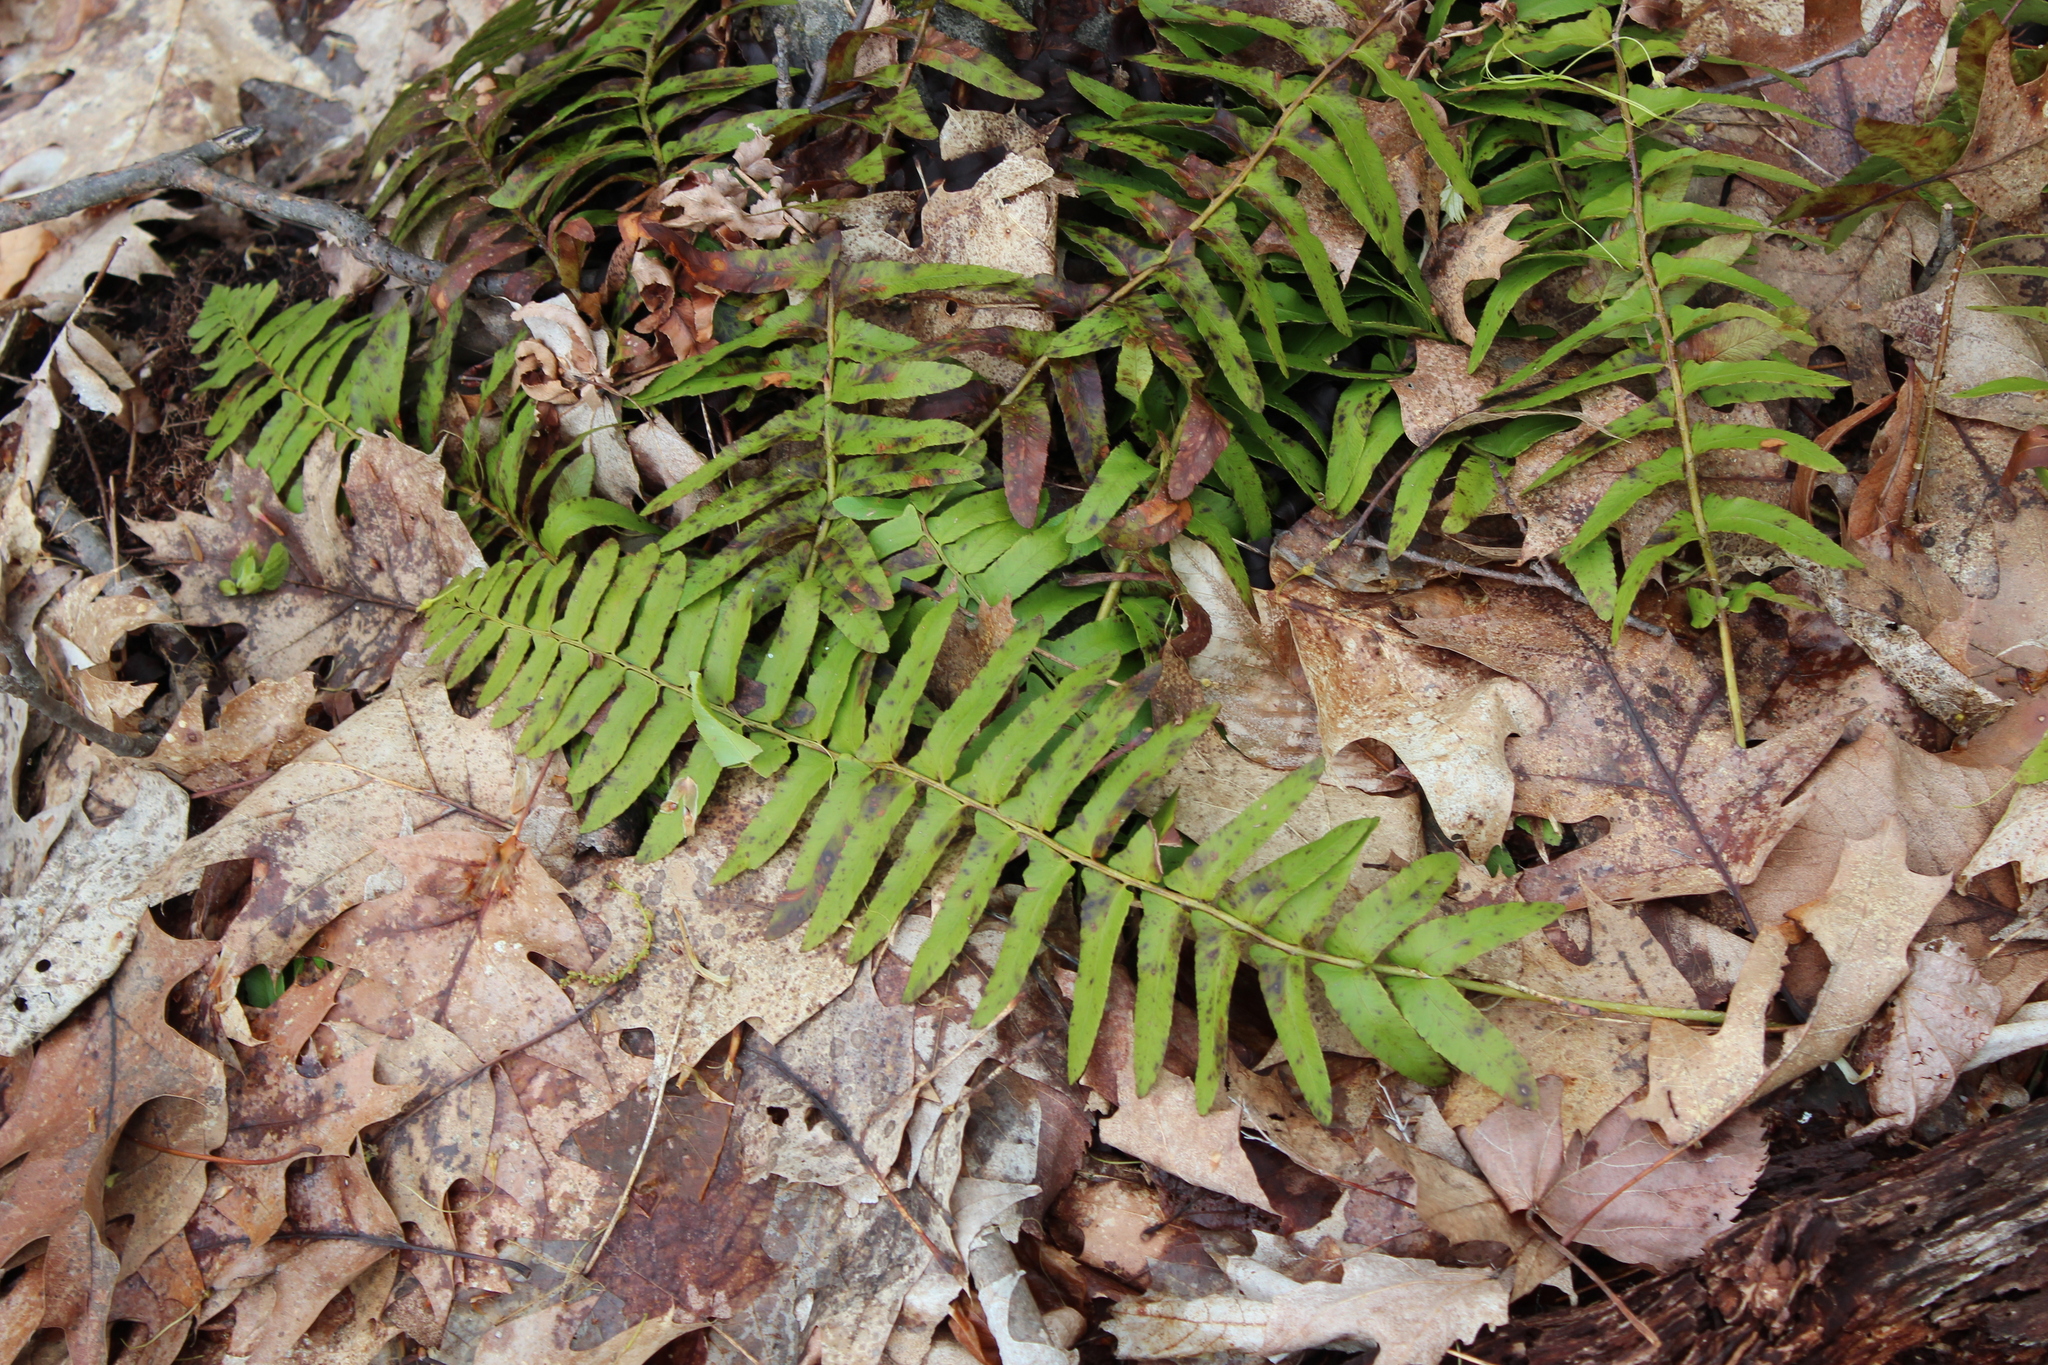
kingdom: Plantae
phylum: Tracheophyta
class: Polypodiopsida
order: Polypodiales
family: Dryopteridaceae
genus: Polystichum
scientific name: Polystichum acrostichoides
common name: Christmas fern
